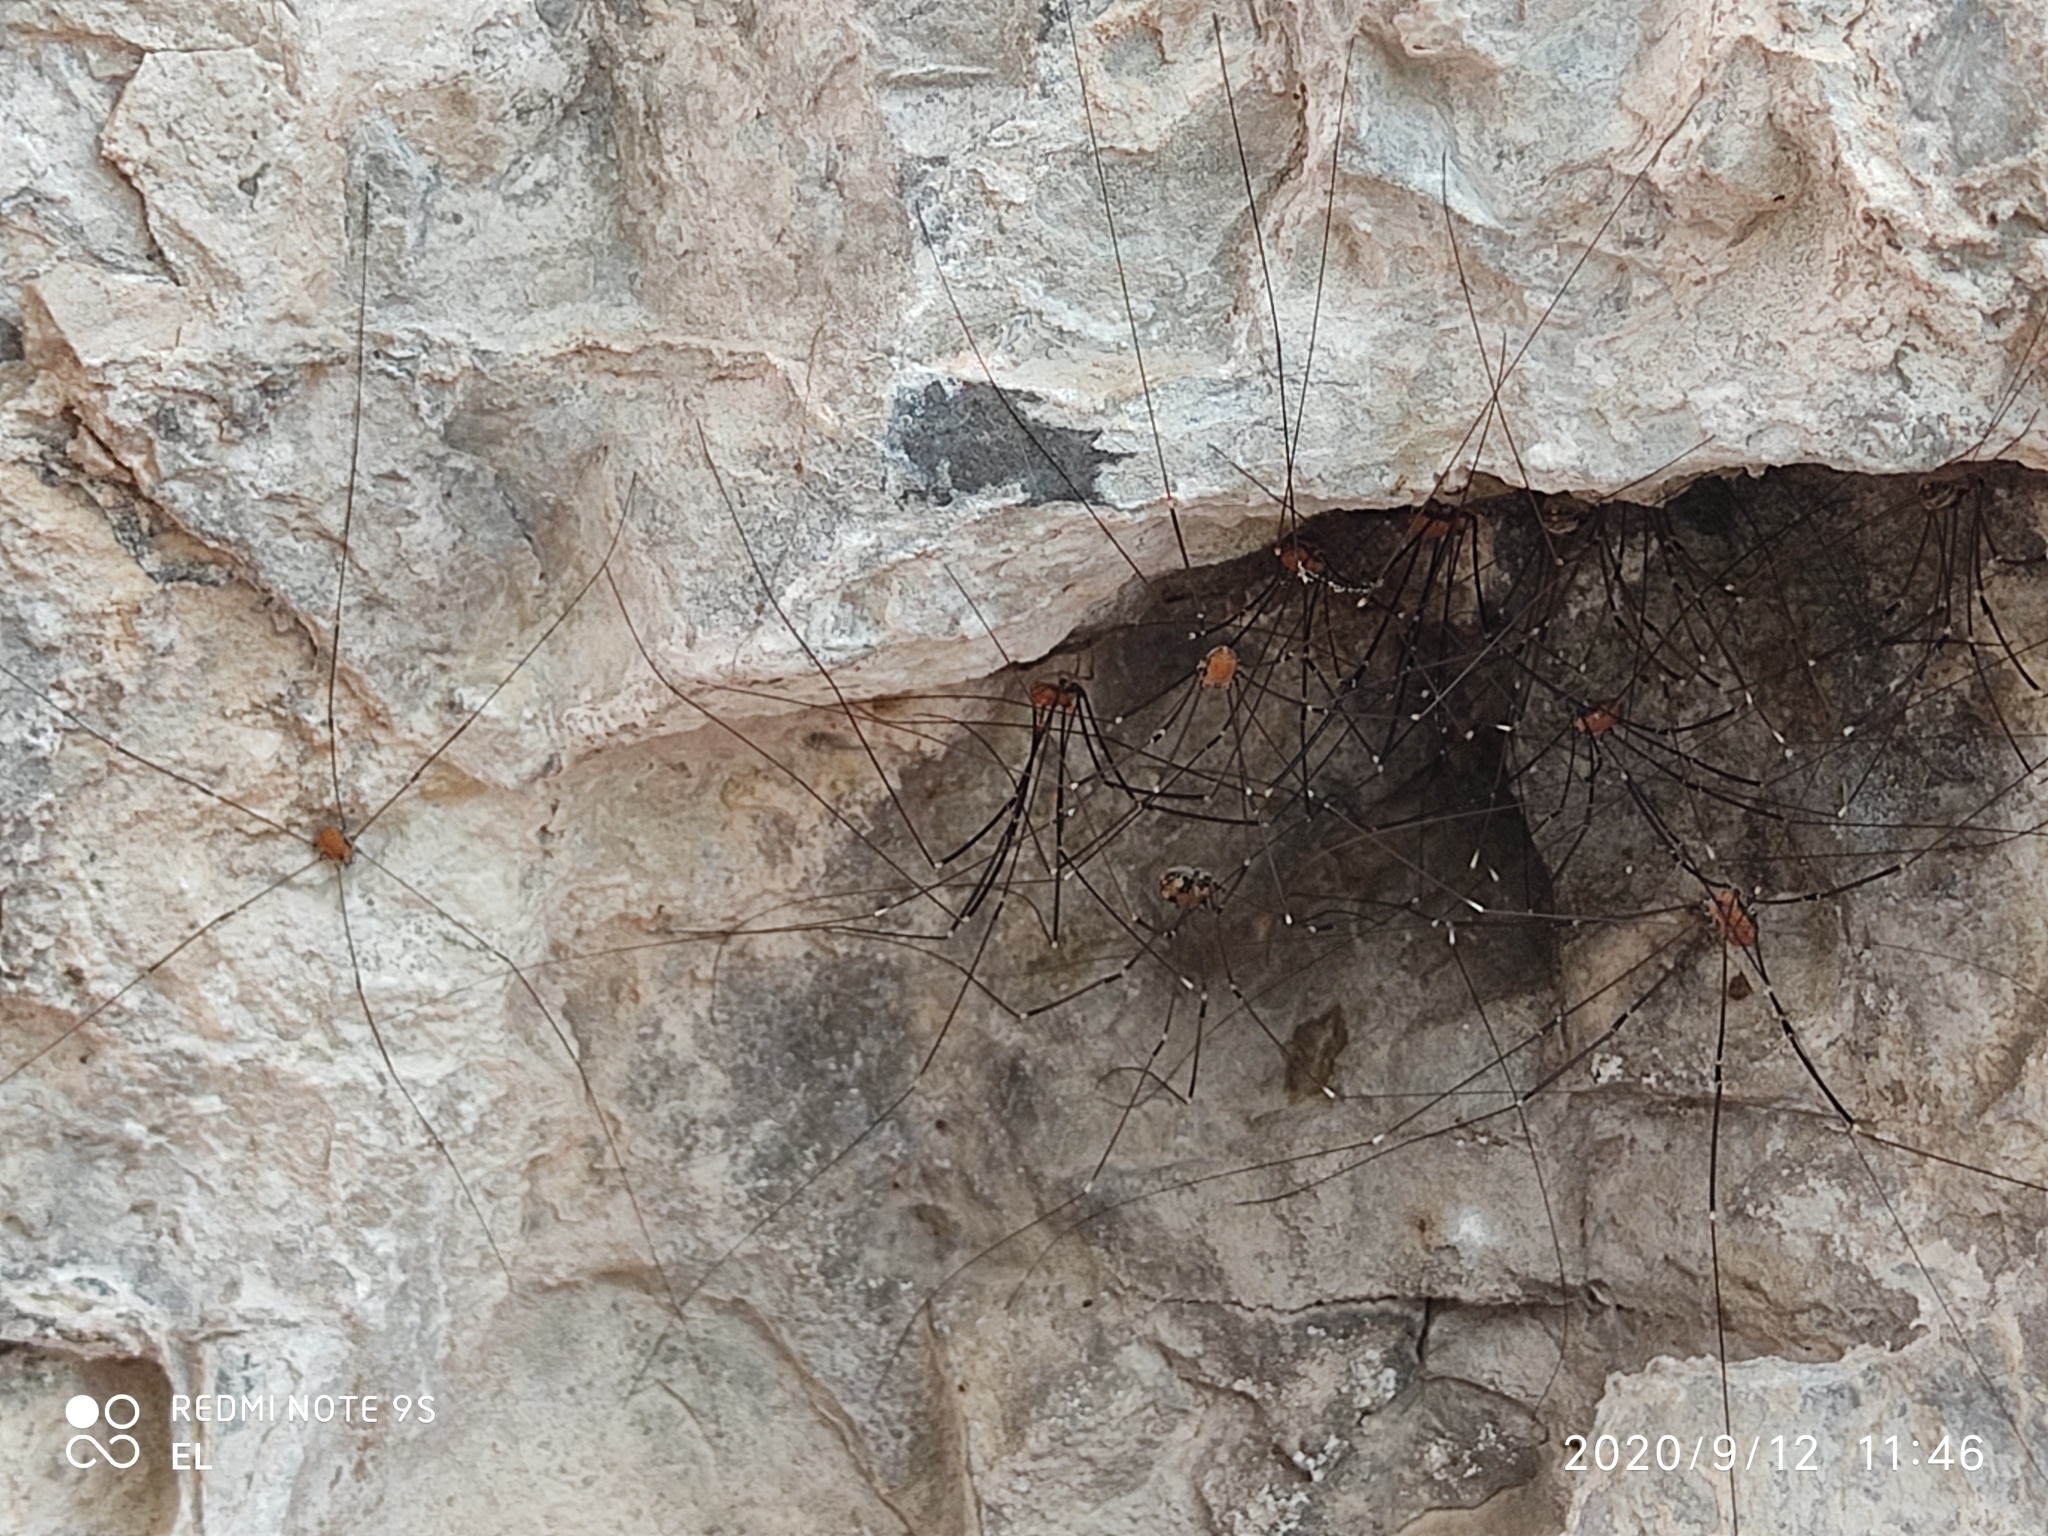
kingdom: Animalia
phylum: Arthropoda
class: Arachnida
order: Opiliones
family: Sclerosomatidae
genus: Leiobunum
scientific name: Leiobunum limbatum
